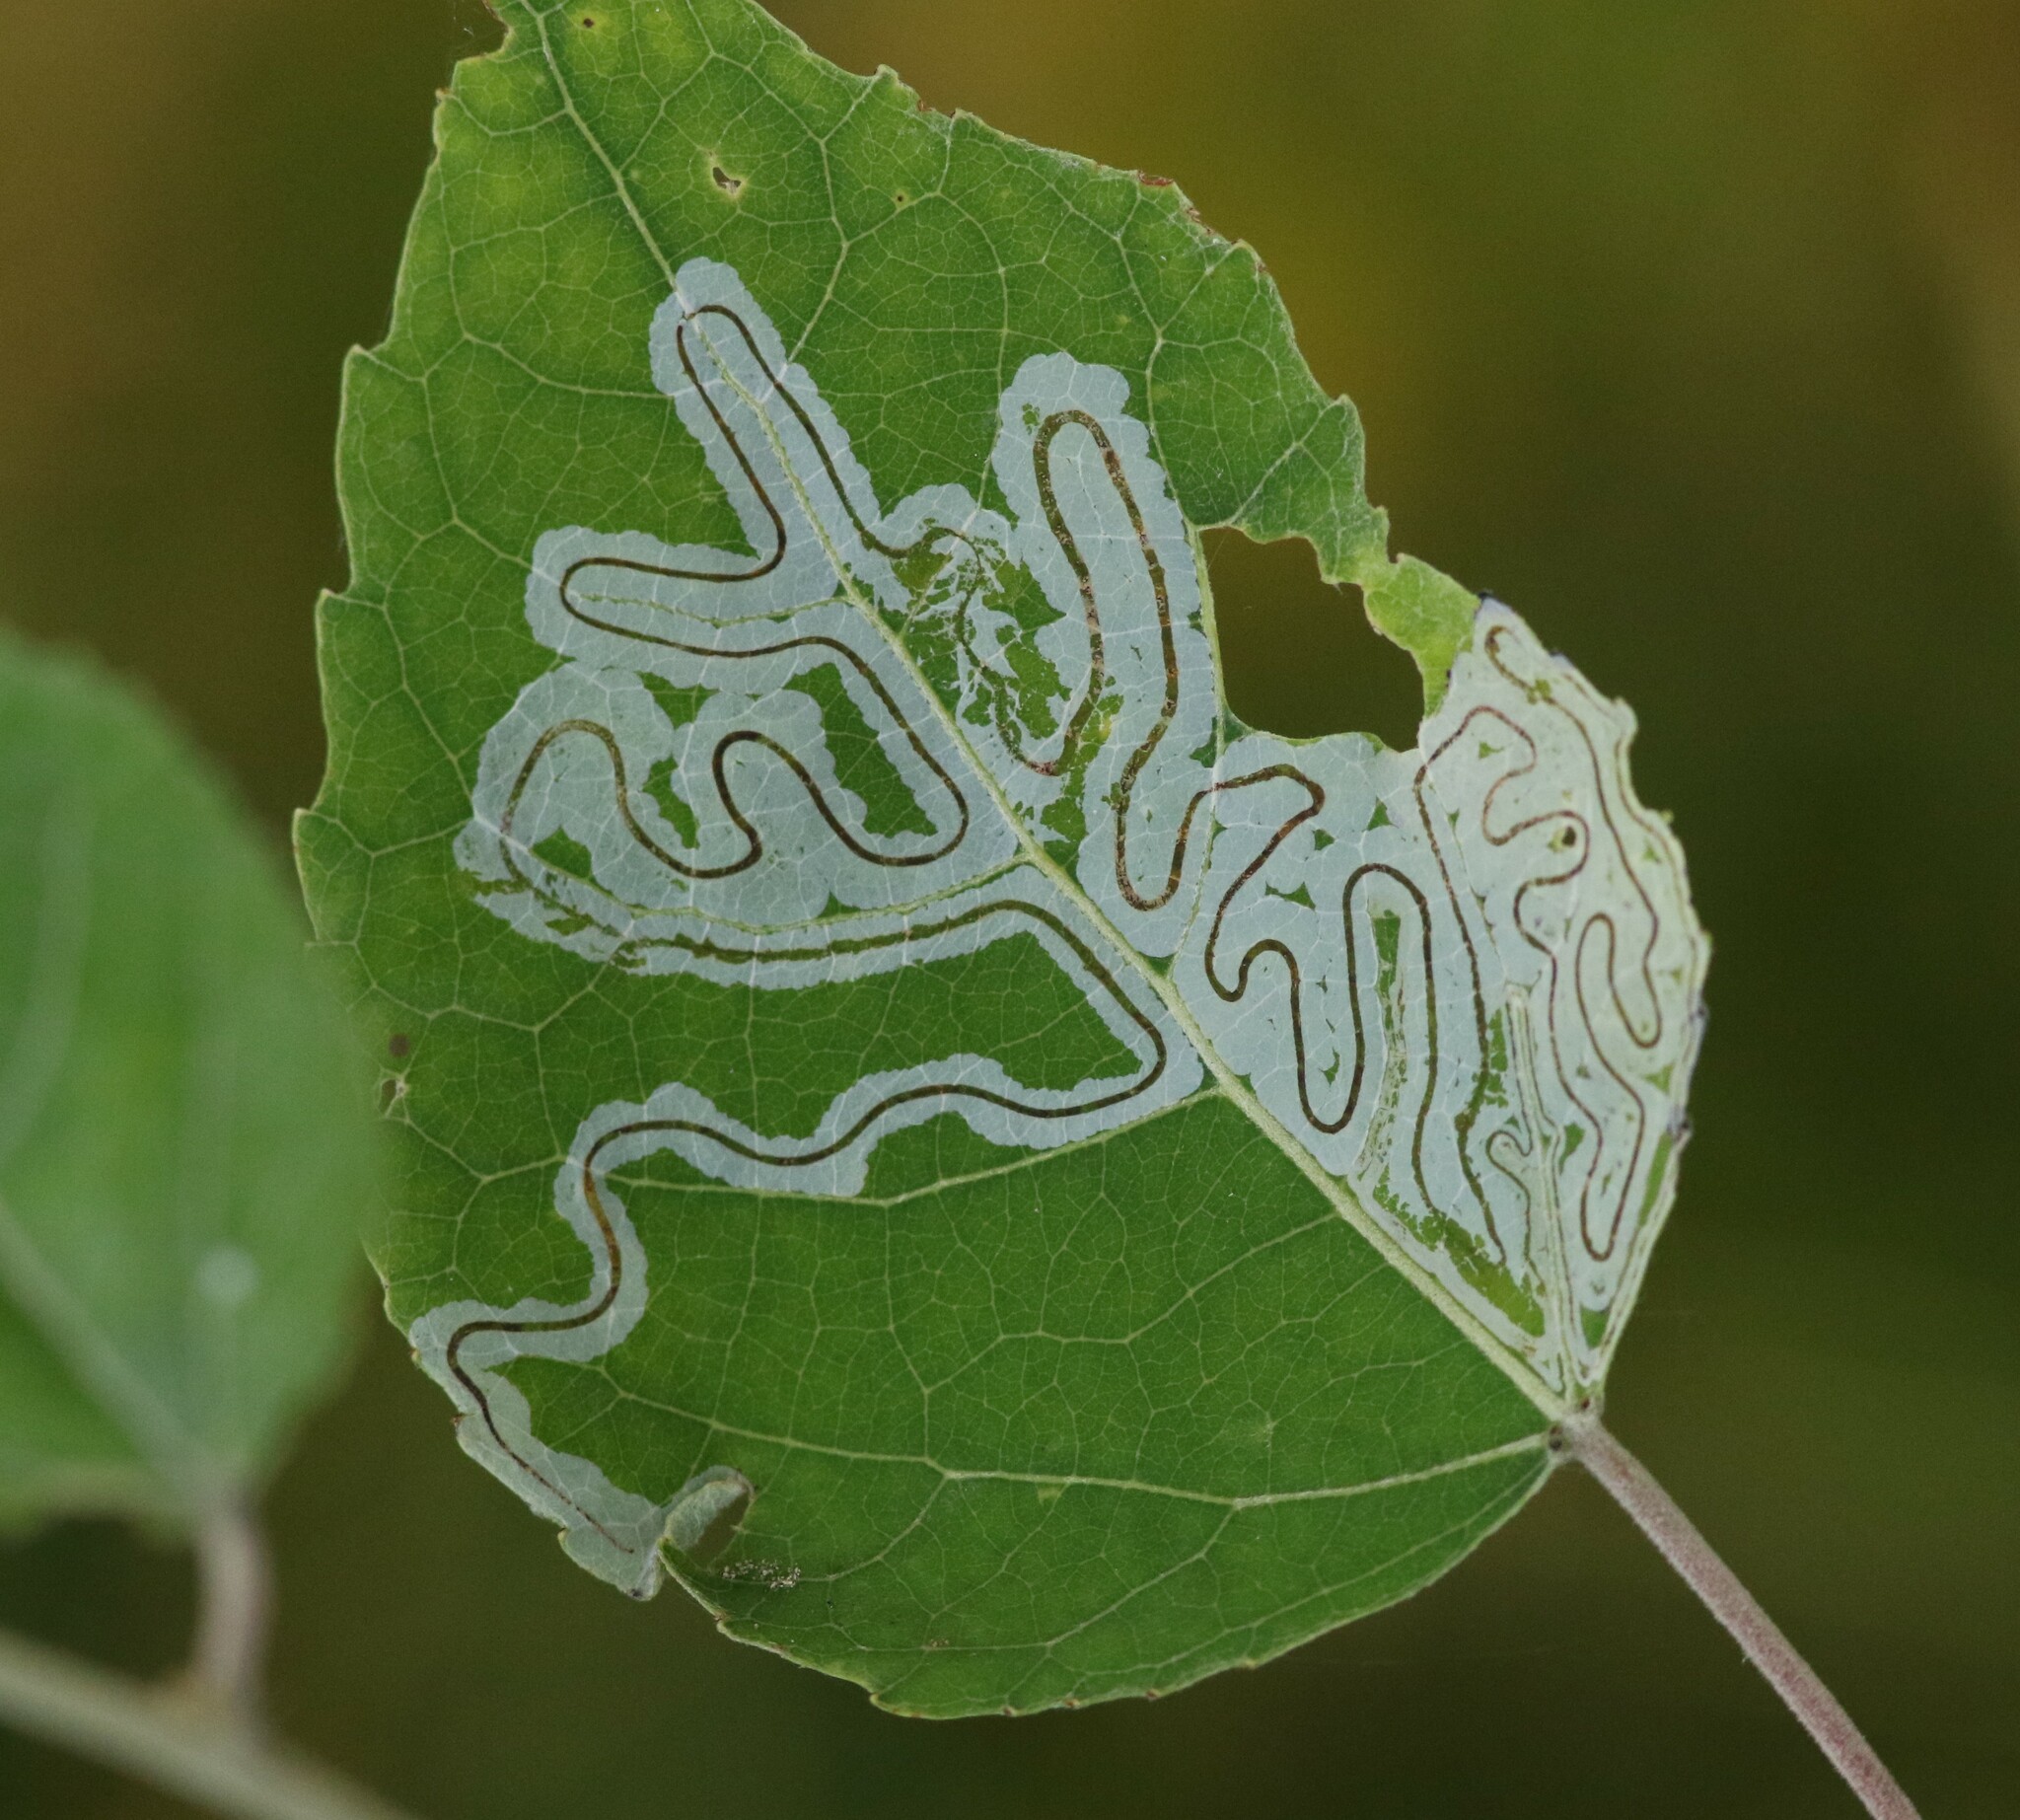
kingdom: Animalia
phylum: Arthropoda
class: Insecta
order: Lepidoptera
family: Gracillariidae
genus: Phyllocnistis
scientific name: Phyllocnistis populiella
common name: Aspen serpentine leafminer moth
